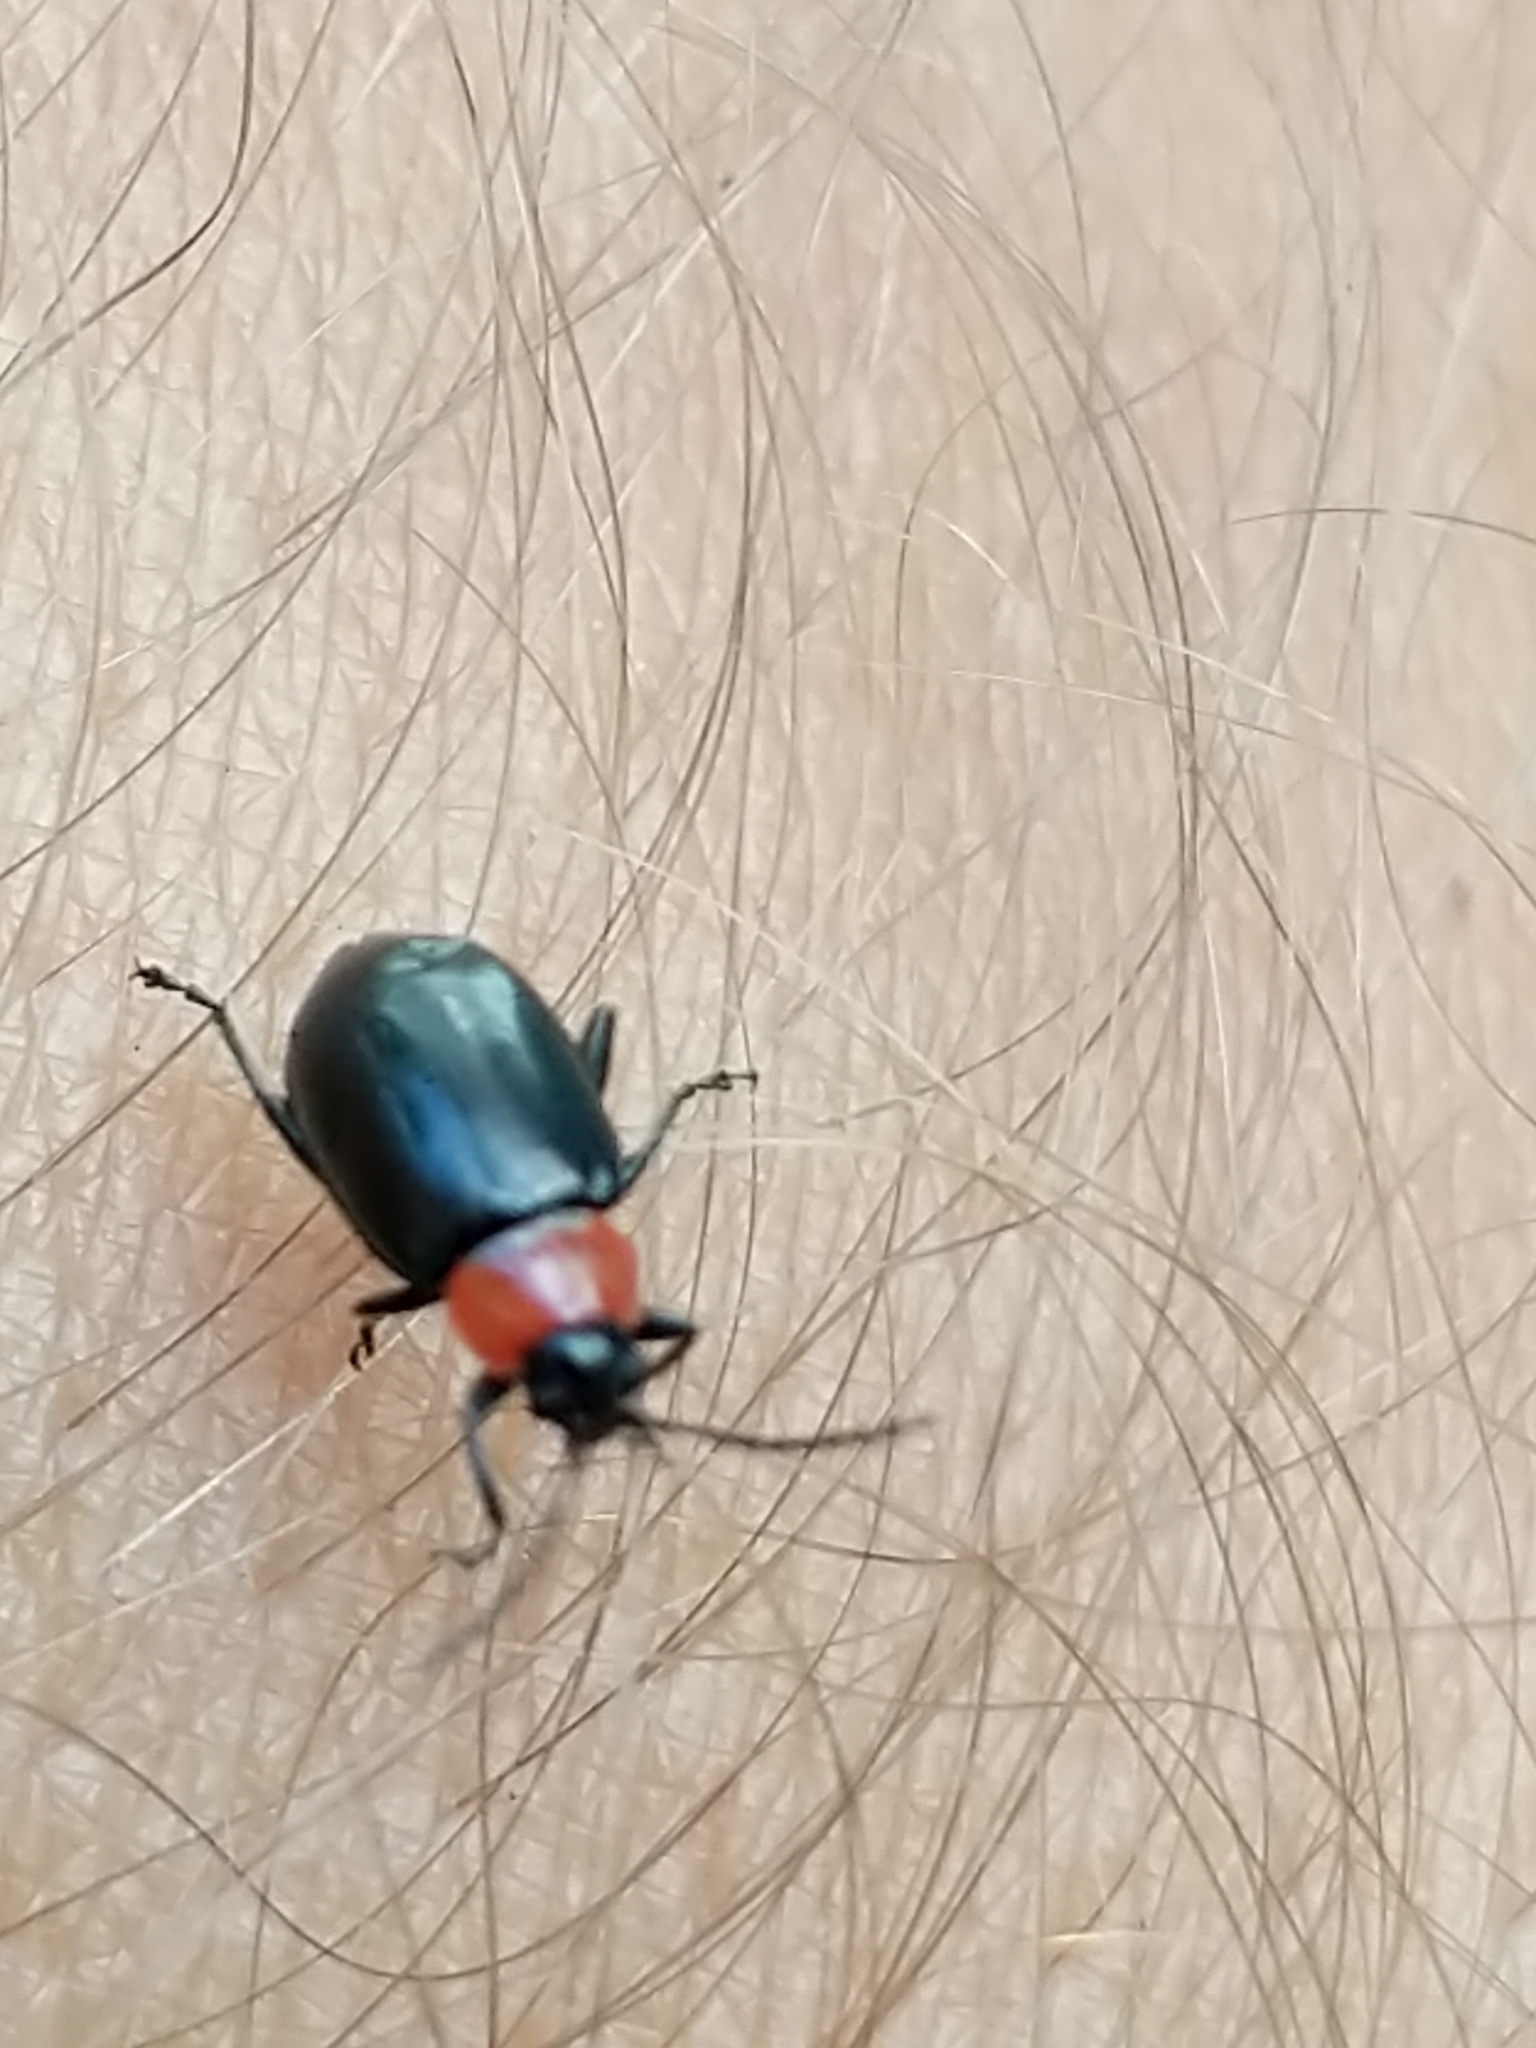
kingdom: Animalia
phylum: Arthropoda
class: Insecta
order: Coleoptera
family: Chrysomelidae
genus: Disonycha
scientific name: Disonycha xanthomelas
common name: Spinach flea beetle
